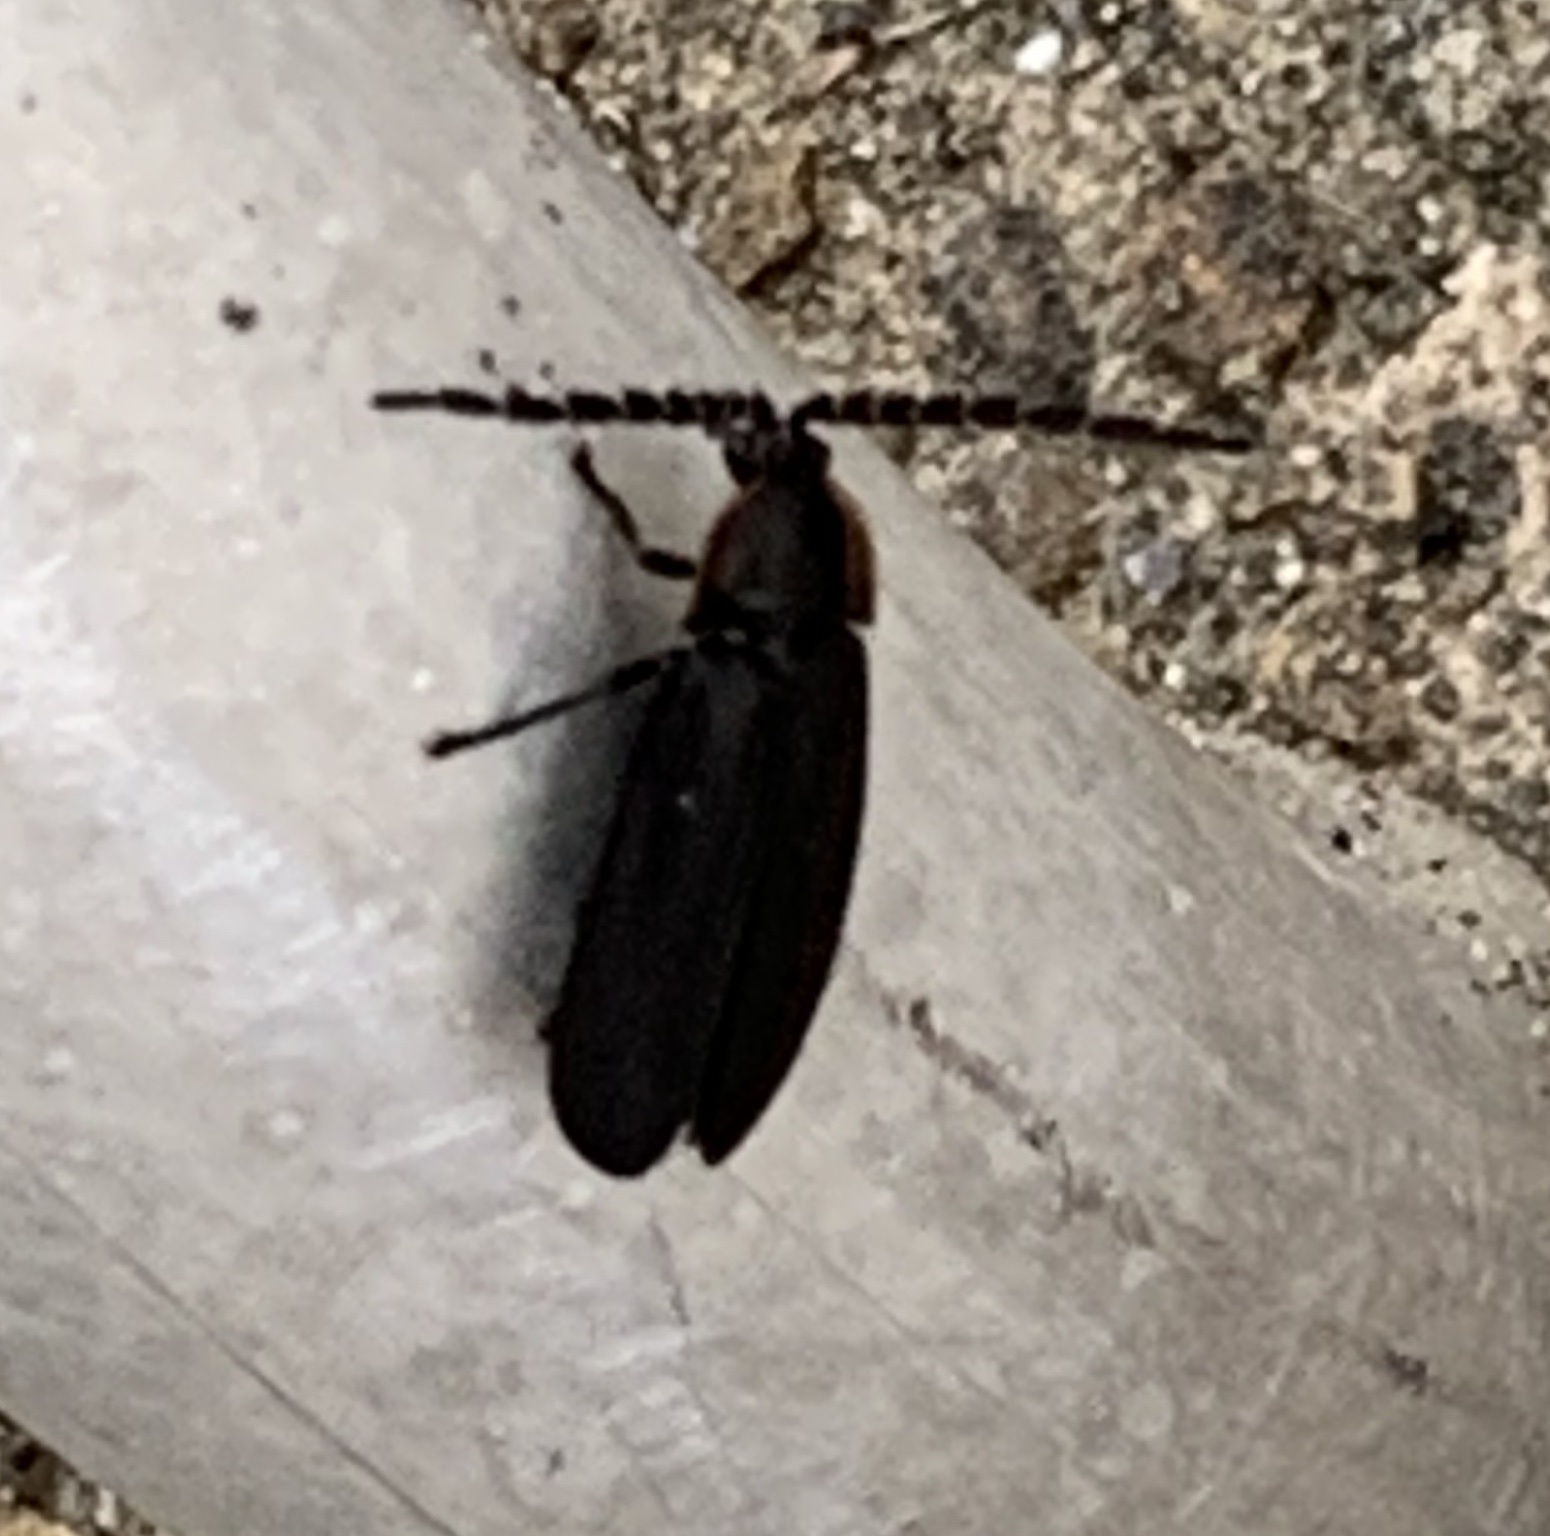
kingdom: Animalia
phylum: Arthropoda
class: Insecta
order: Coleoptera
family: Lampyridae
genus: Lucidota
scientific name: Lucidota atra
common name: Black firefly
